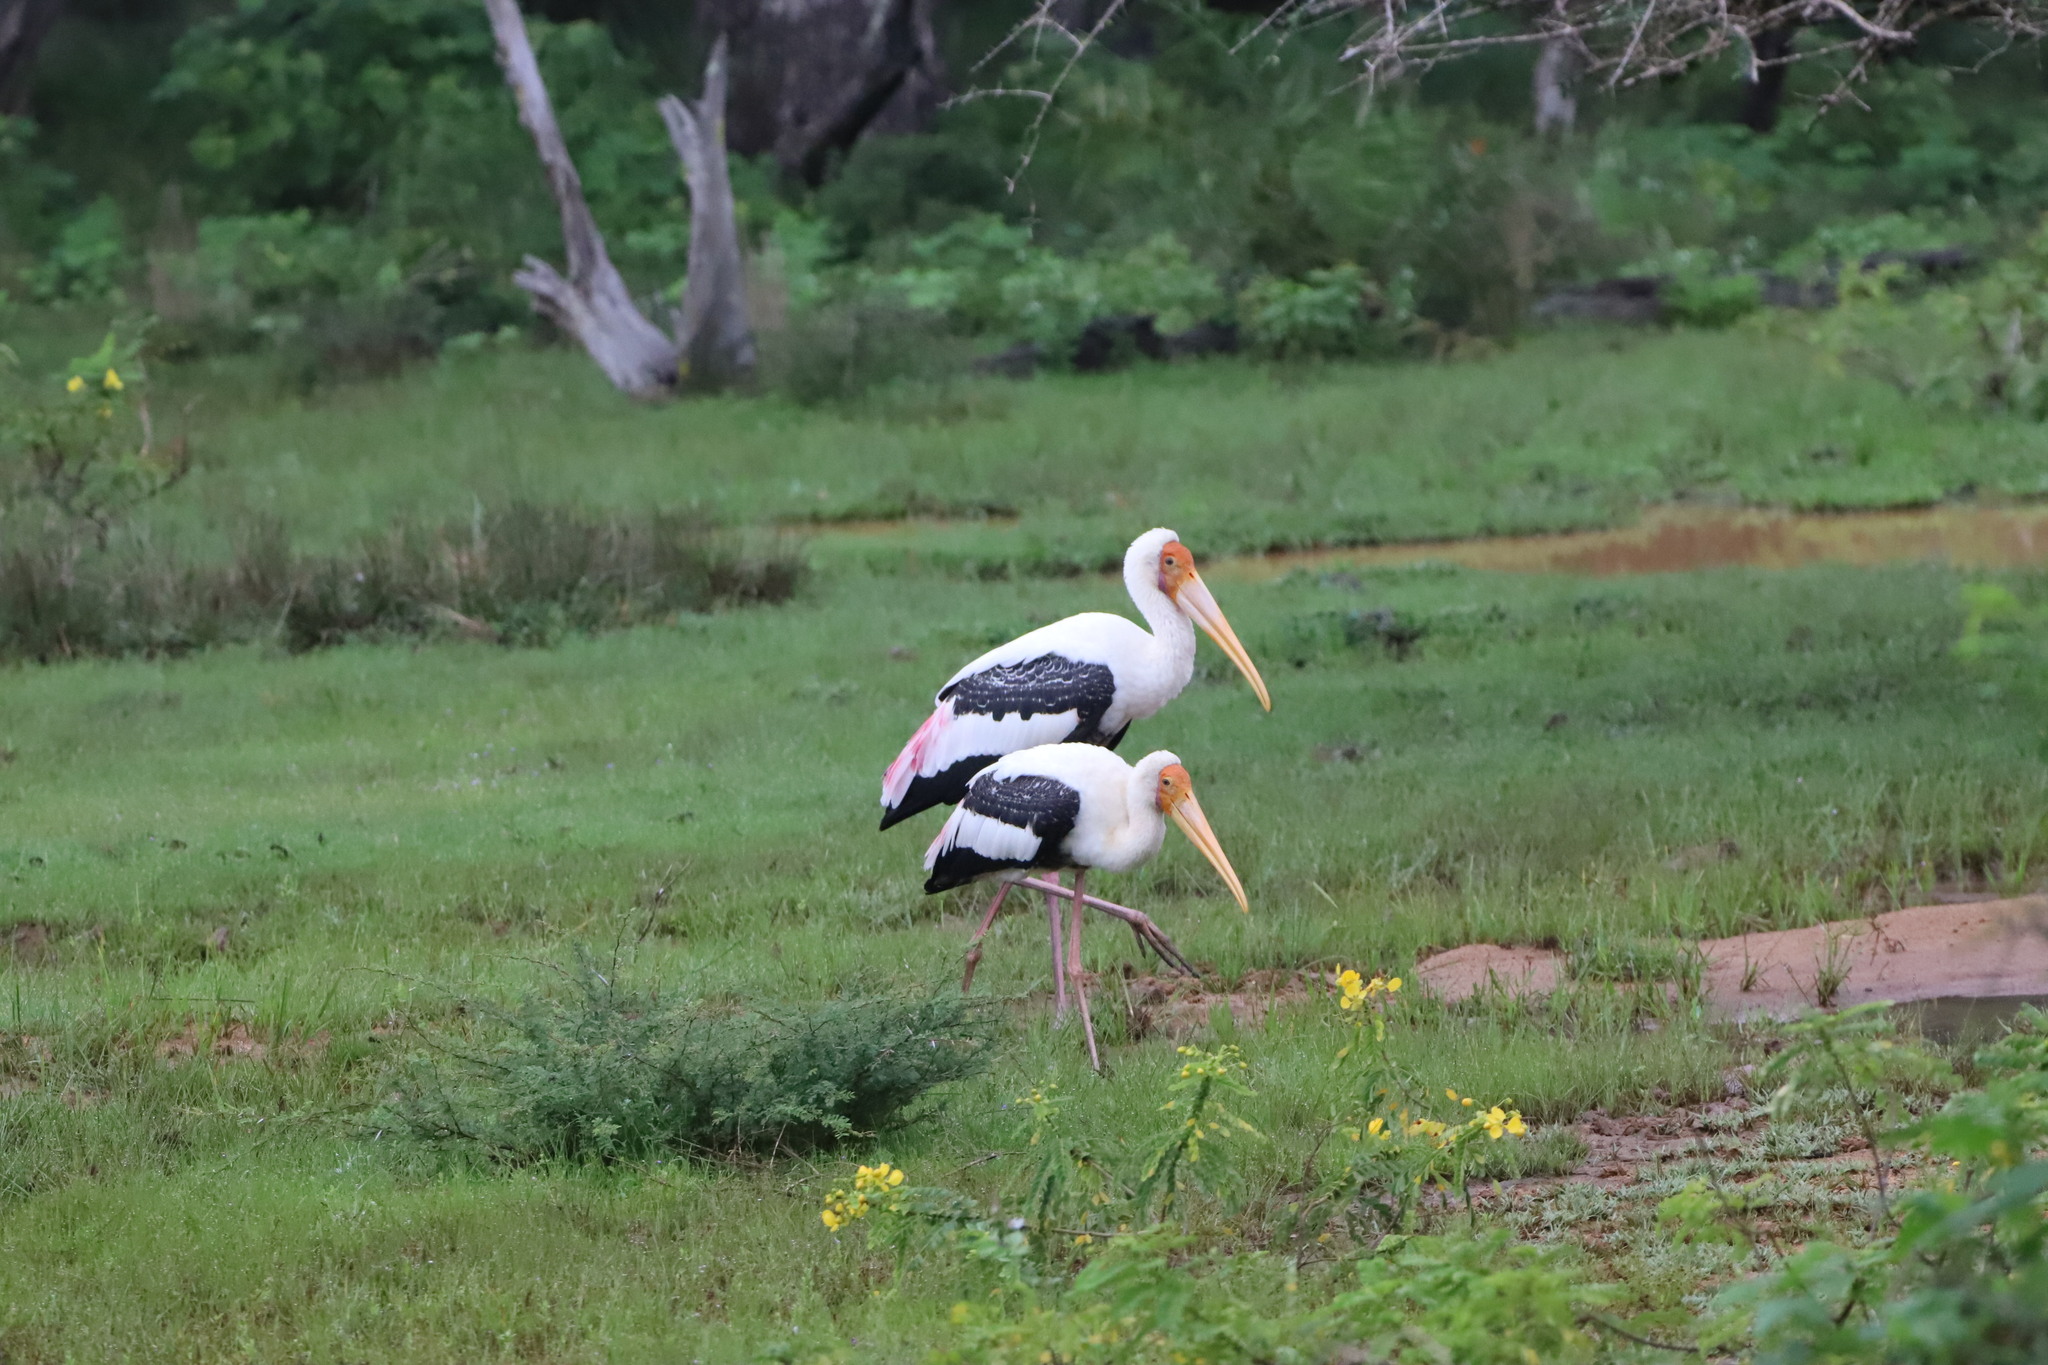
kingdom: Animalia
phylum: Chordata
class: Aves
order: Ciconiiformes
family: Ciconiidae
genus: Mycteria
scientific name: Mycteria leucocephala
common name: Painted stork
